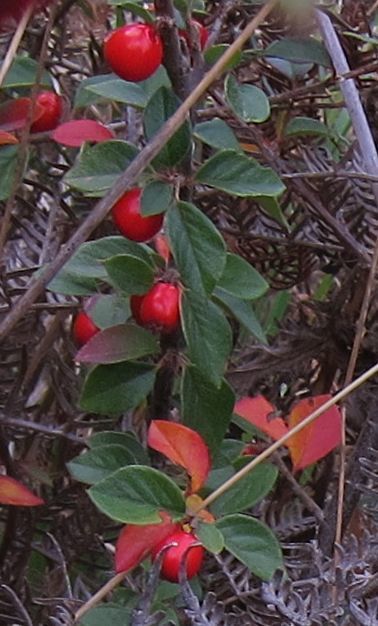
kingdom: Plantae
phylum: Tracheophyta
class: Magnoliopsida
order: Rosales
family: Rosaceae
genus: Cotoneaster
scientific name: Cotoneaster simonsii
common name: Himalayan cotoneaster
